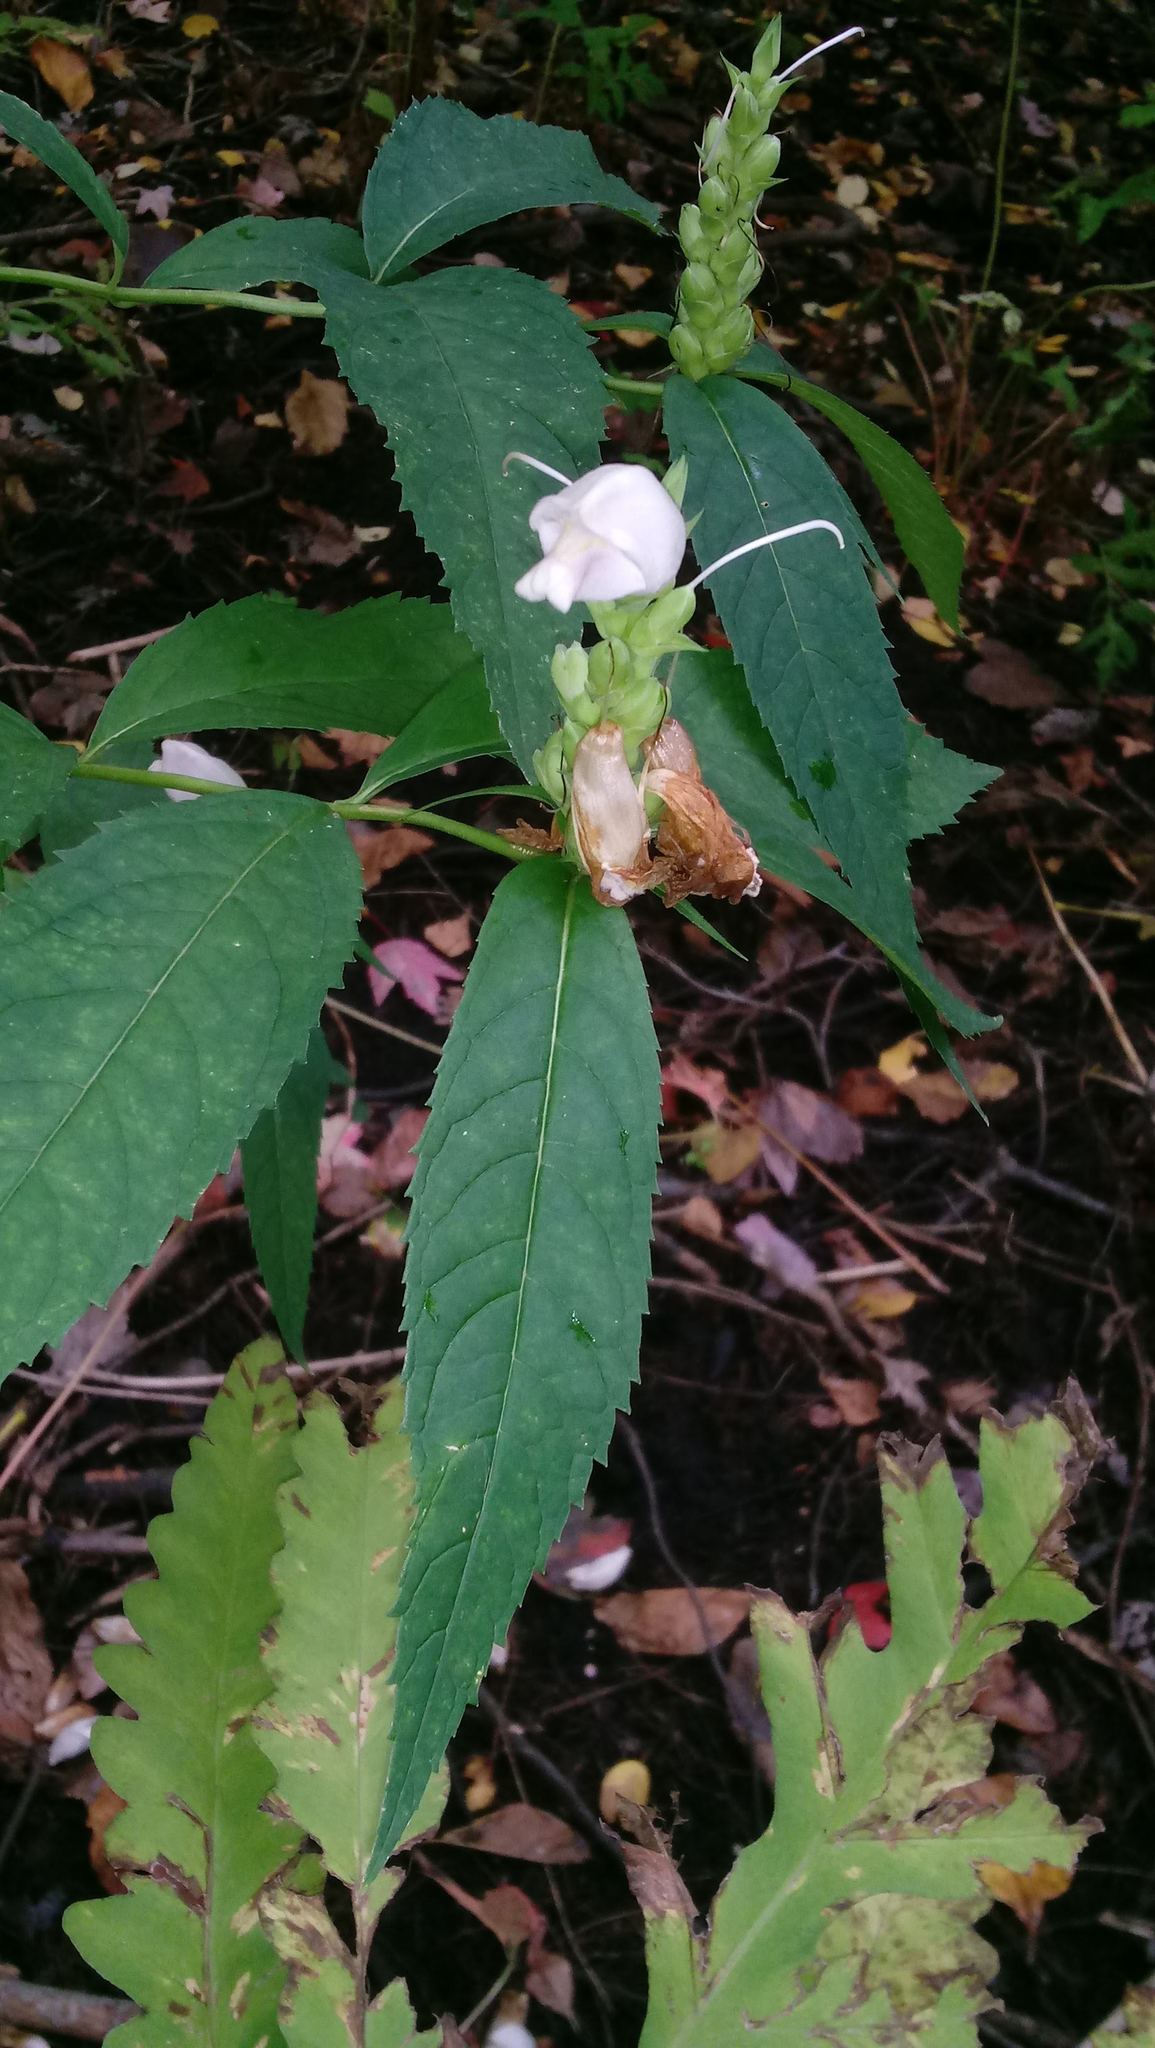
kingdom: Plantae
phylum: Tracheophyta
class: Magnoliopsida
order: Lamiales
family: Plantaginaceae
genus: Chelone
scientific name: Chelone glabra
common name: Snakehead
